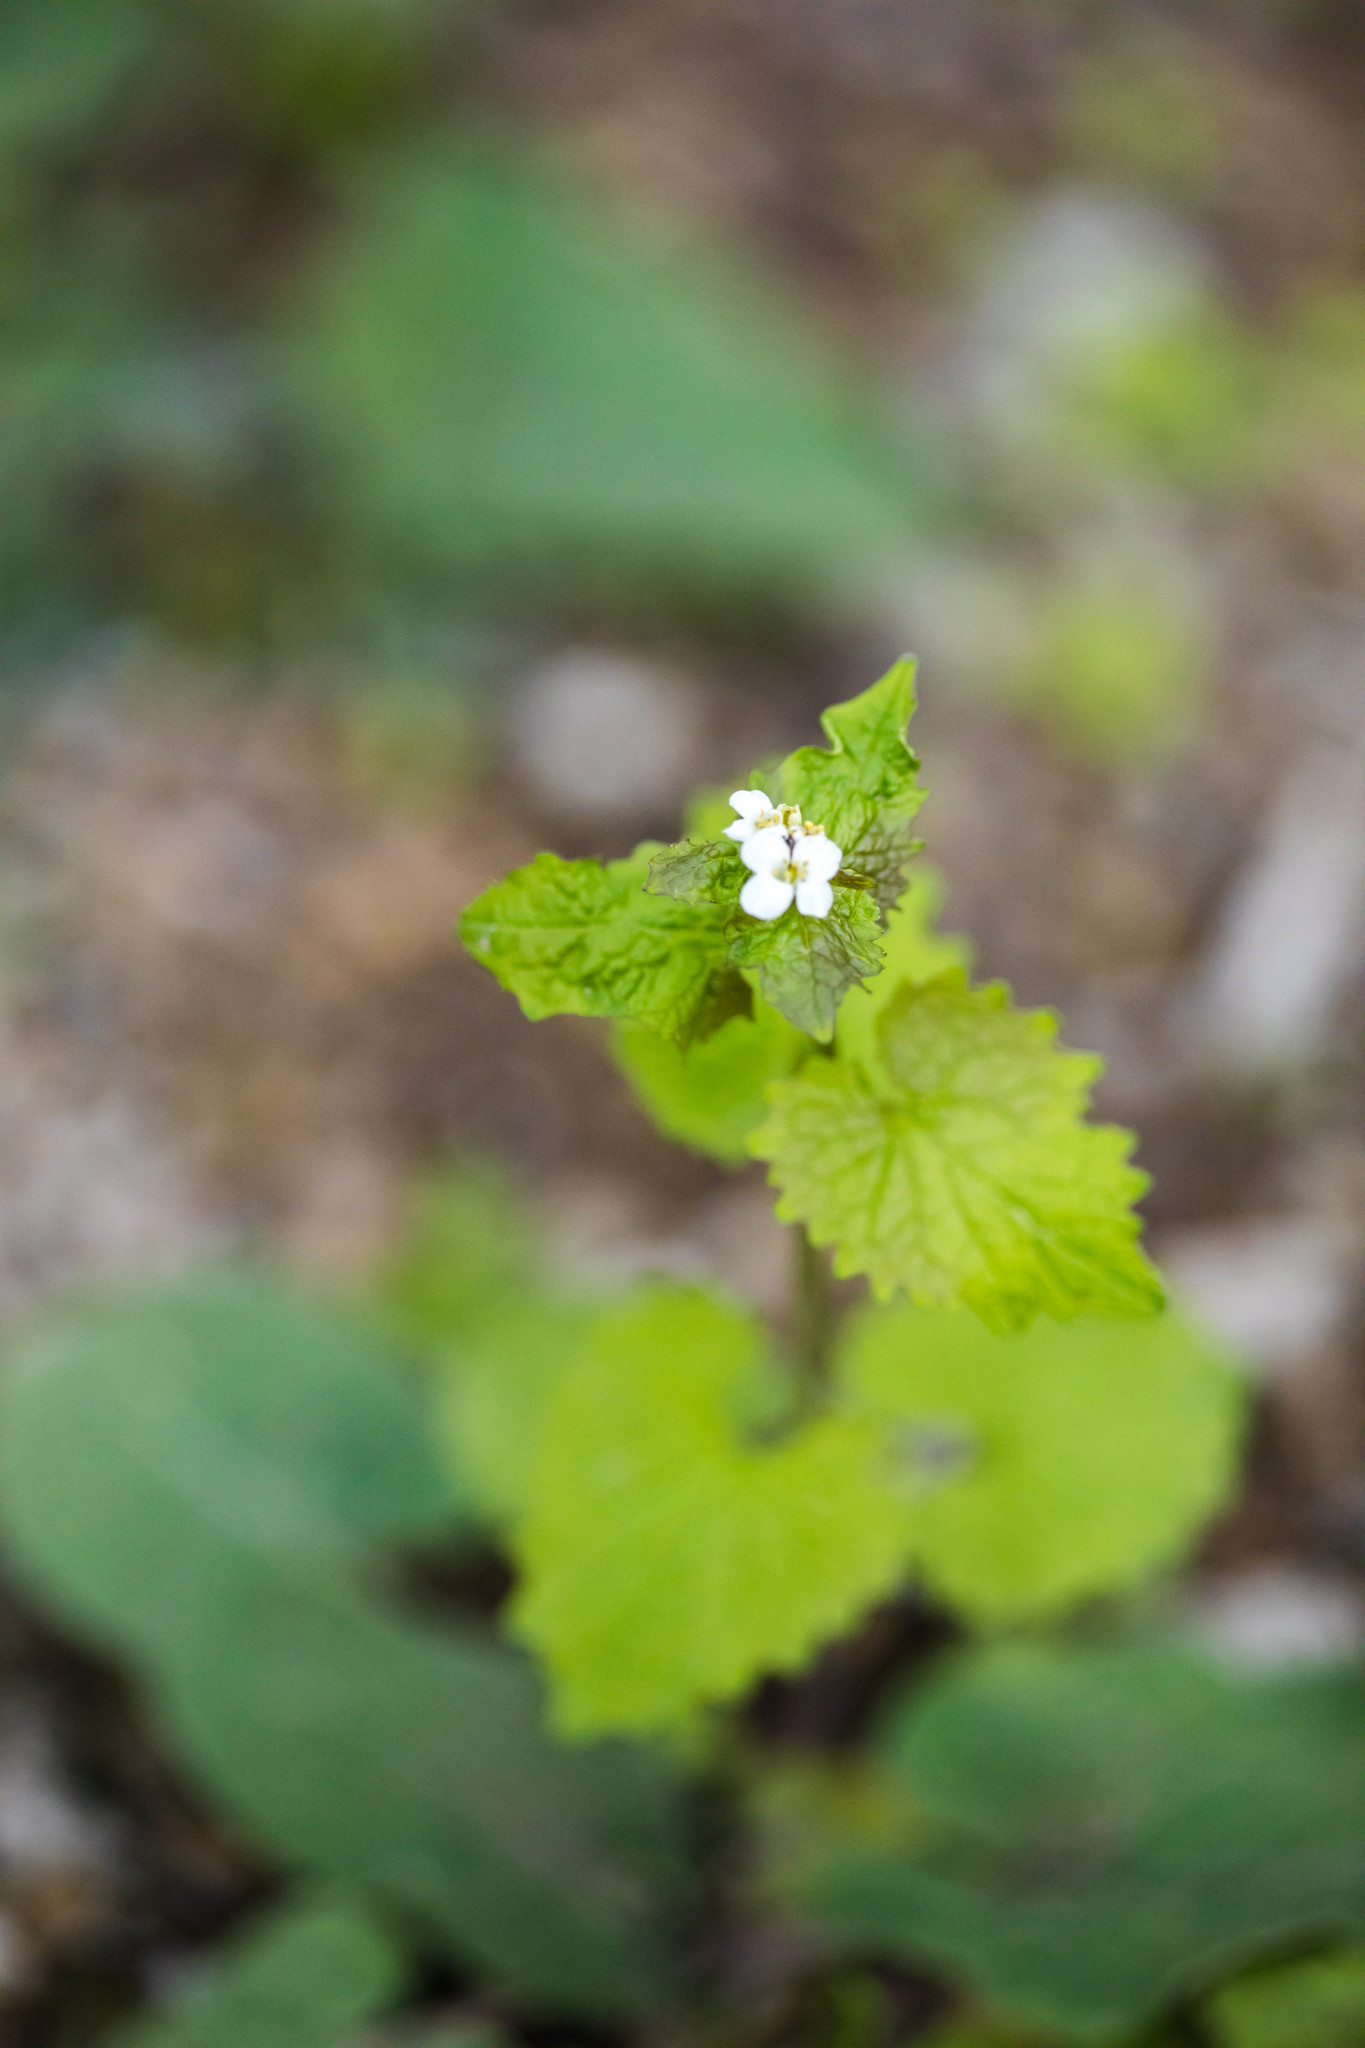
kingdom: Plantae
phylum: Tracheophyta
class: Magnoliopsida
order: Brassicales
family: Brassicaceae
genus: Alliaria
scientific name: Alliaria petiolata
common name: Garlic mustard
